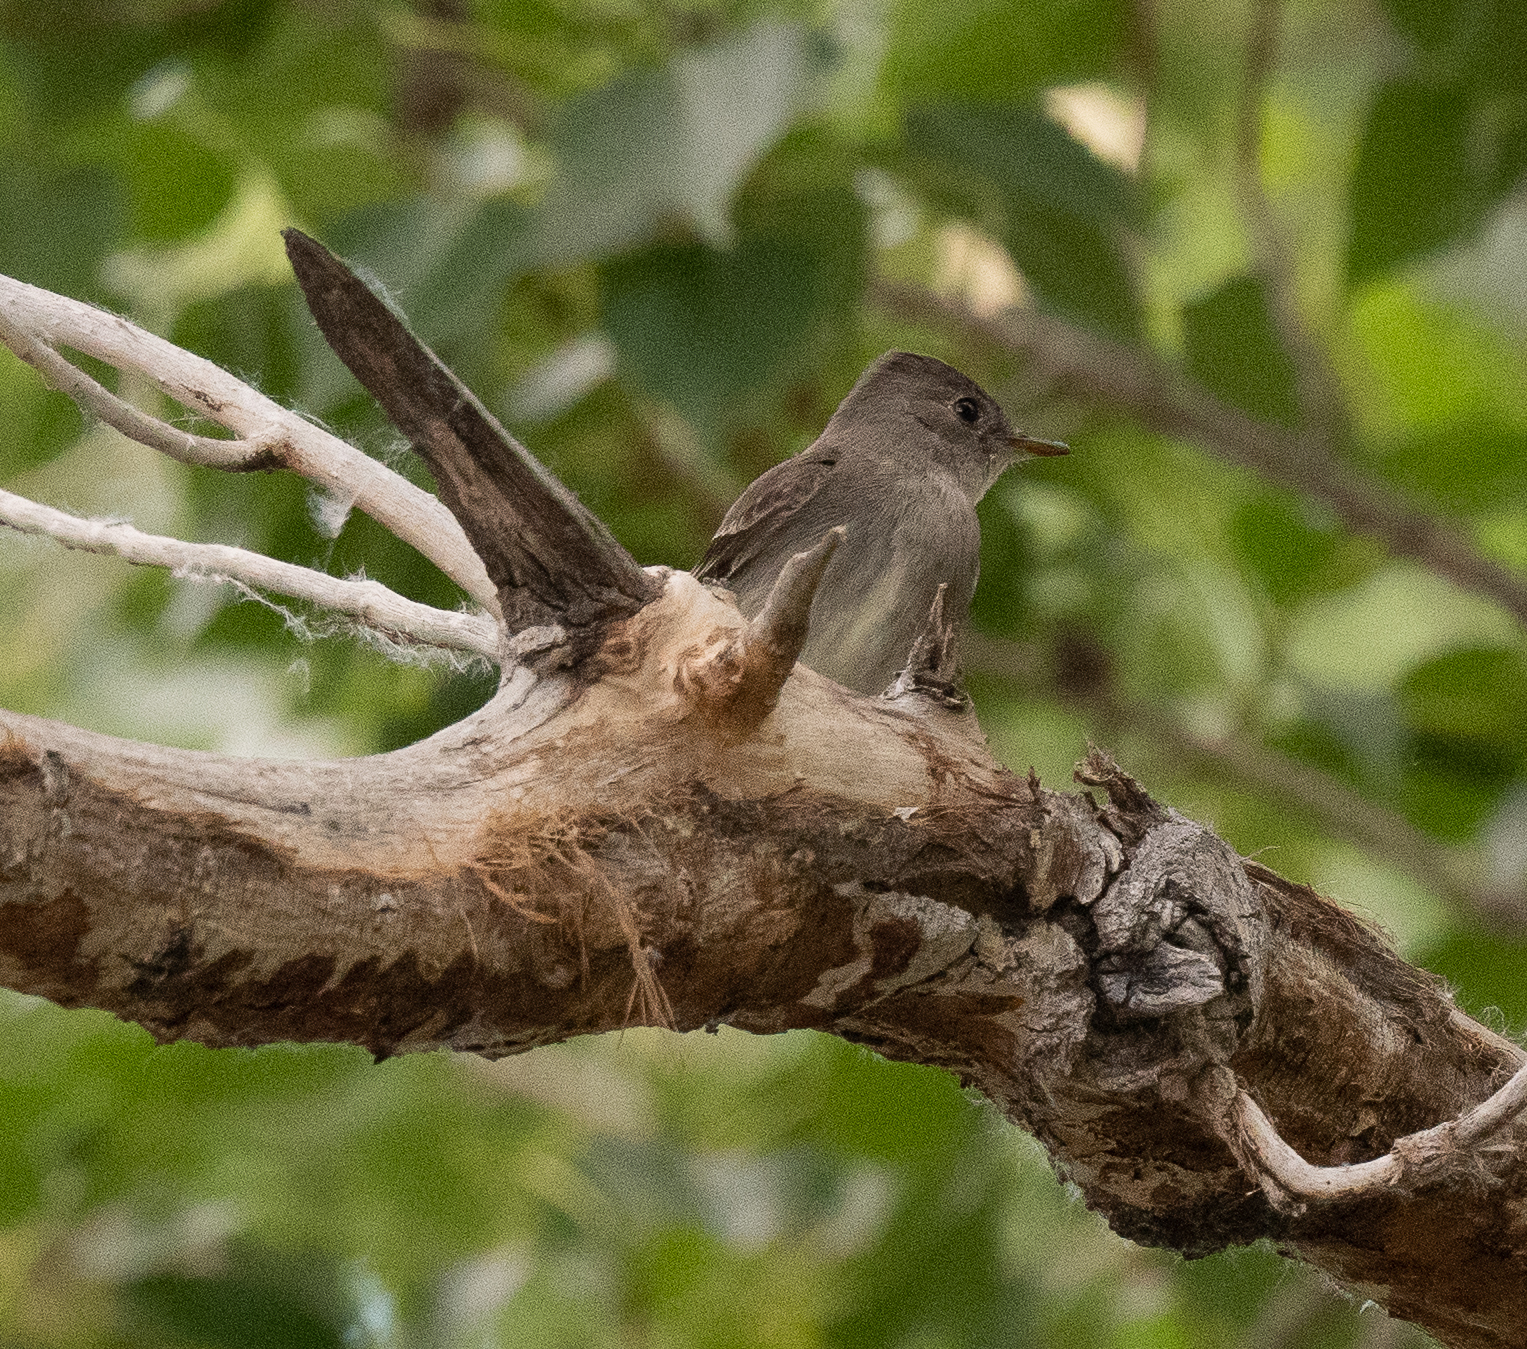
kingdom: Animalia
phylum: Chordata
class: Aves
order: Passeriformes
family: Tyrannidae
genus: Contopus
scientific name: Contopus sordidulus
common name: Western wood-pewee
